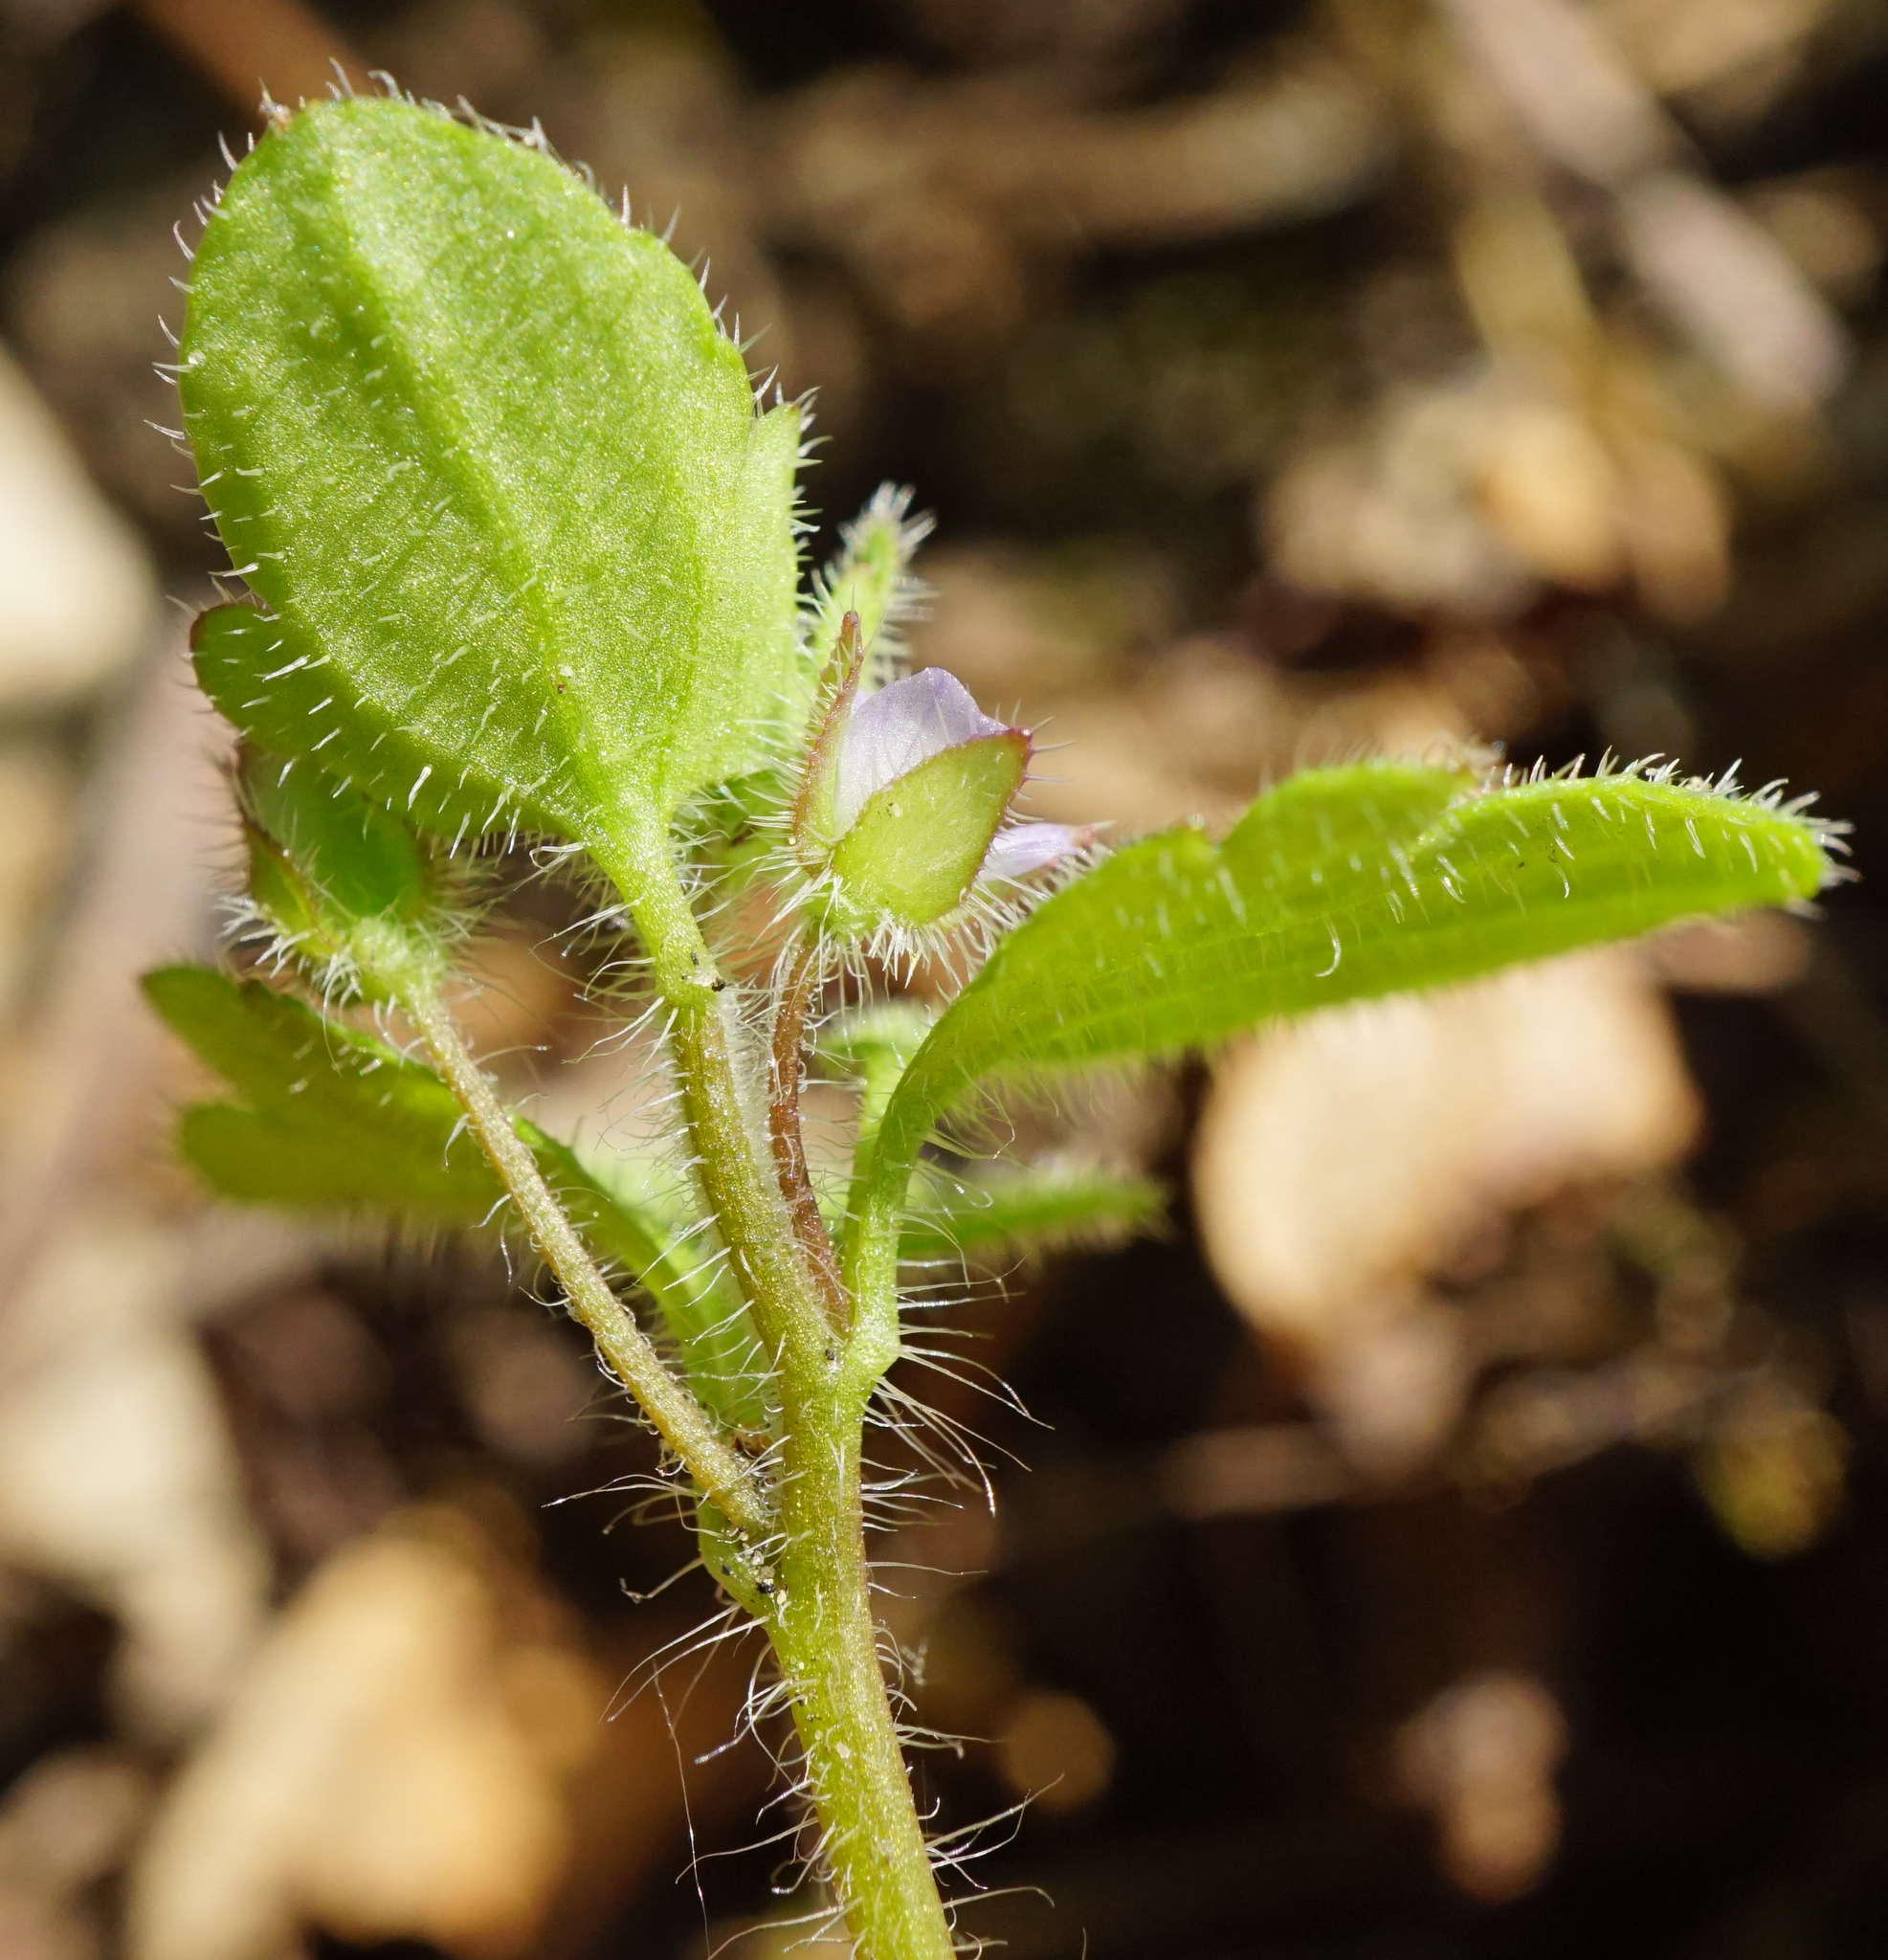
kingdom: Plantae
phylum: Tracheophyta
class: Magnoliopsida
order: Lamiales
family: Plantaginaceae
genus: Veronica
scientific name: Veronica sublobata
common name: False ivy-leaved speedwell
